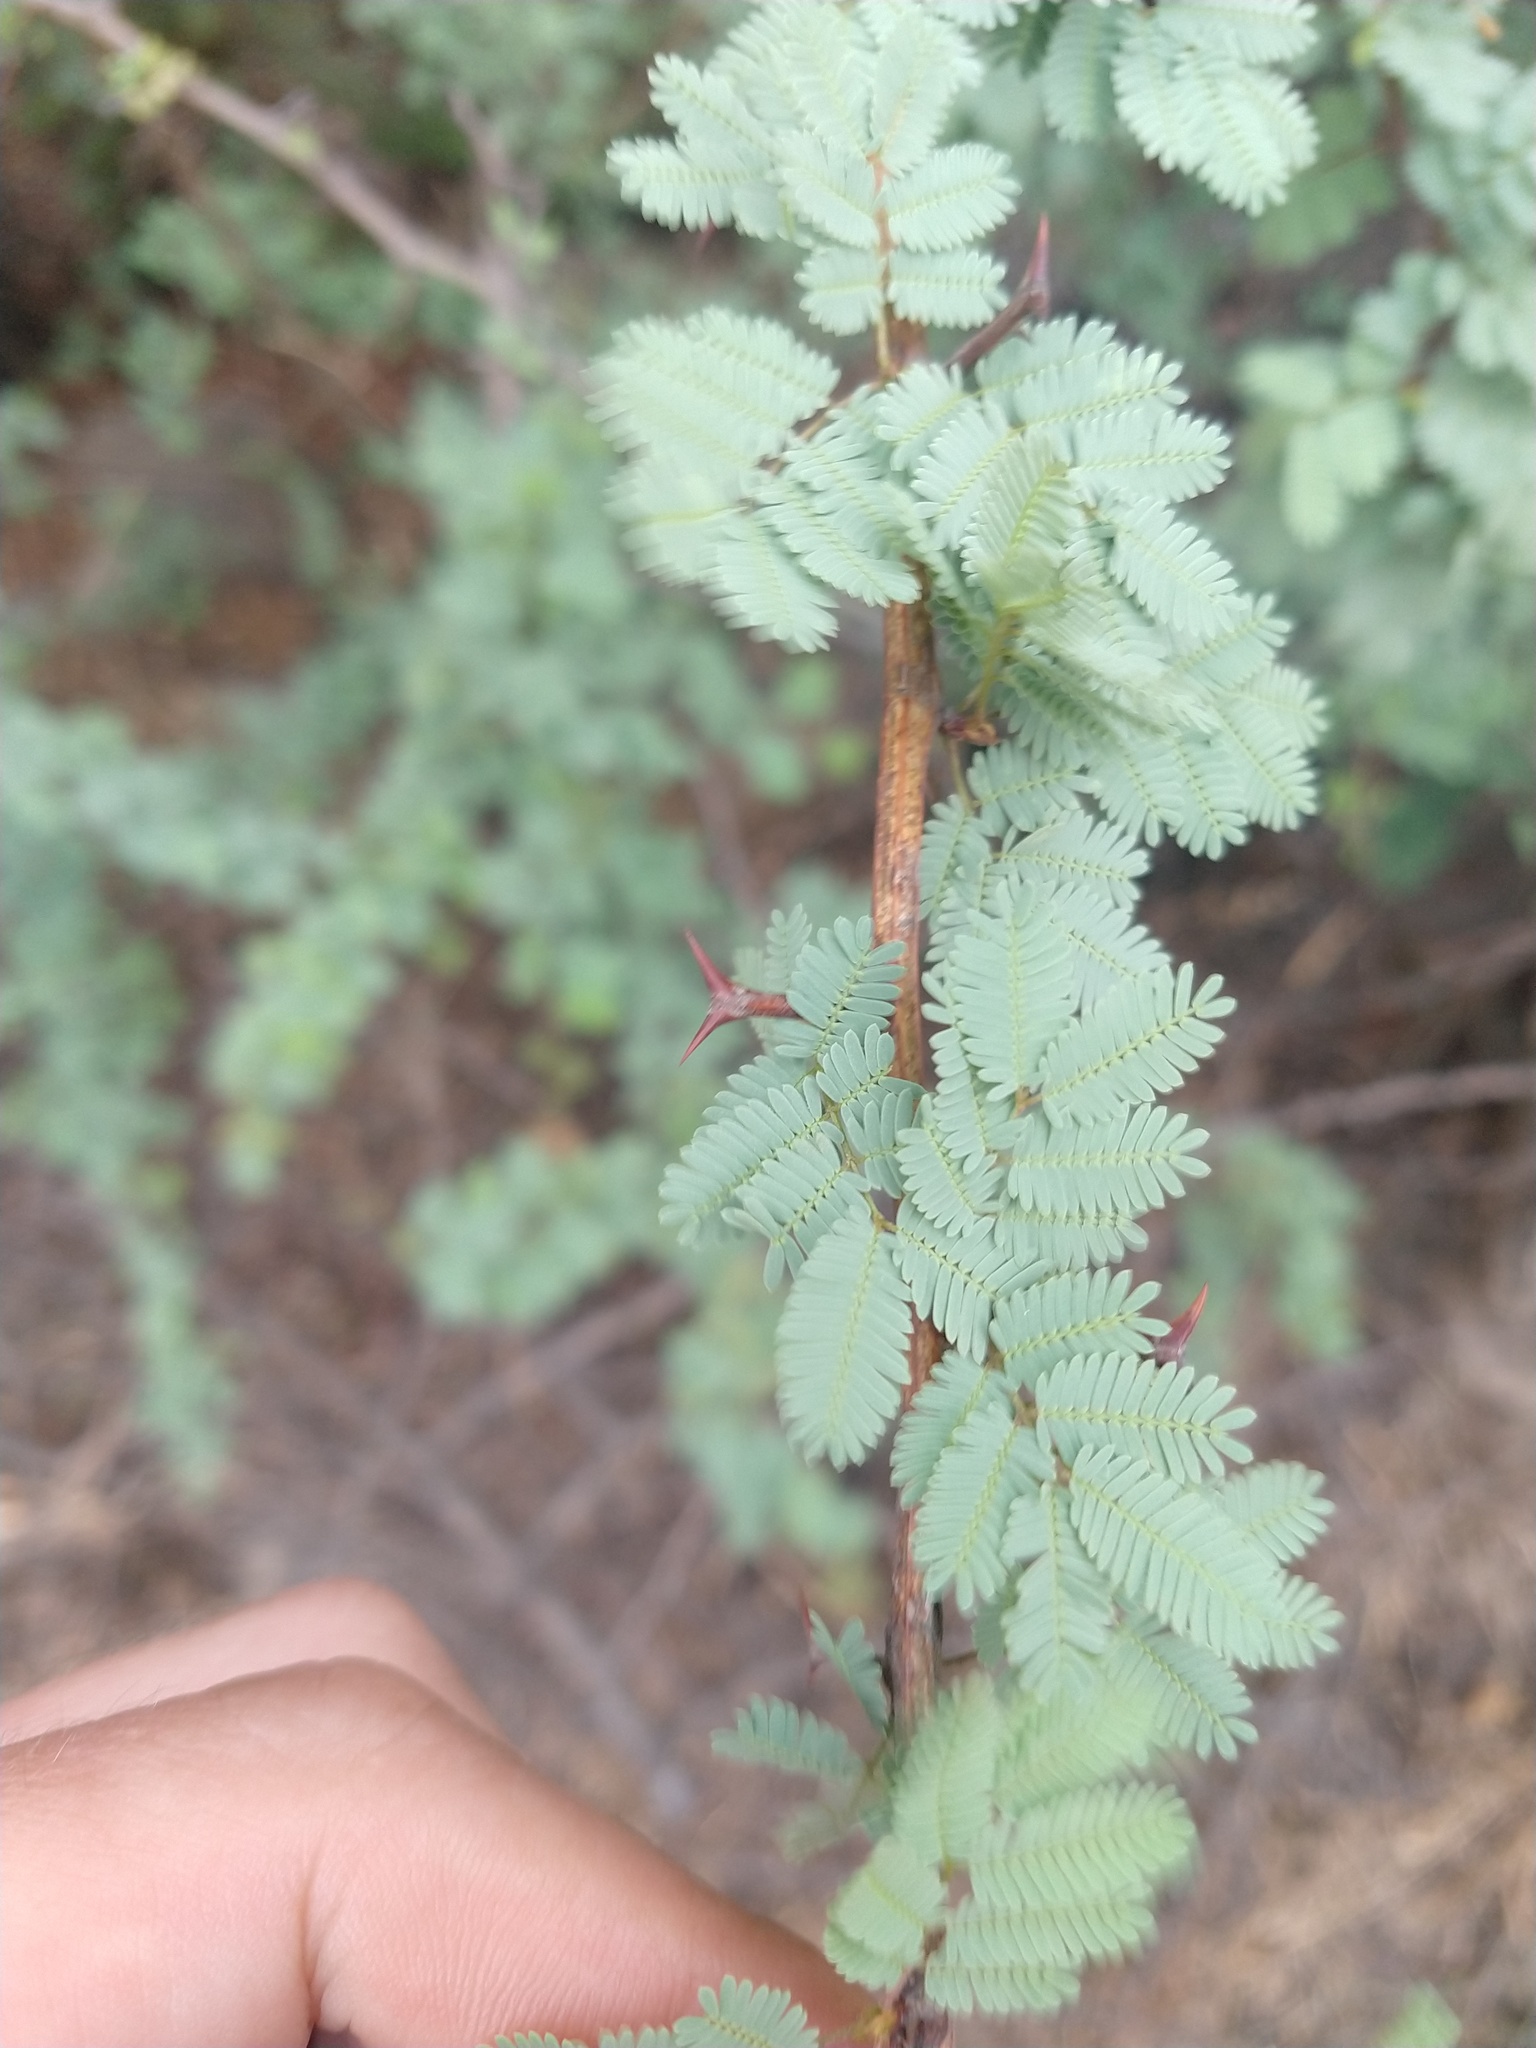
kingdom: Plantae
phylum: Tracheophyta
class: Magnoliopsida
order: Fabales
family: Fabaceae
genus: Senegalia
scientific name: Senegalia gilliesii
